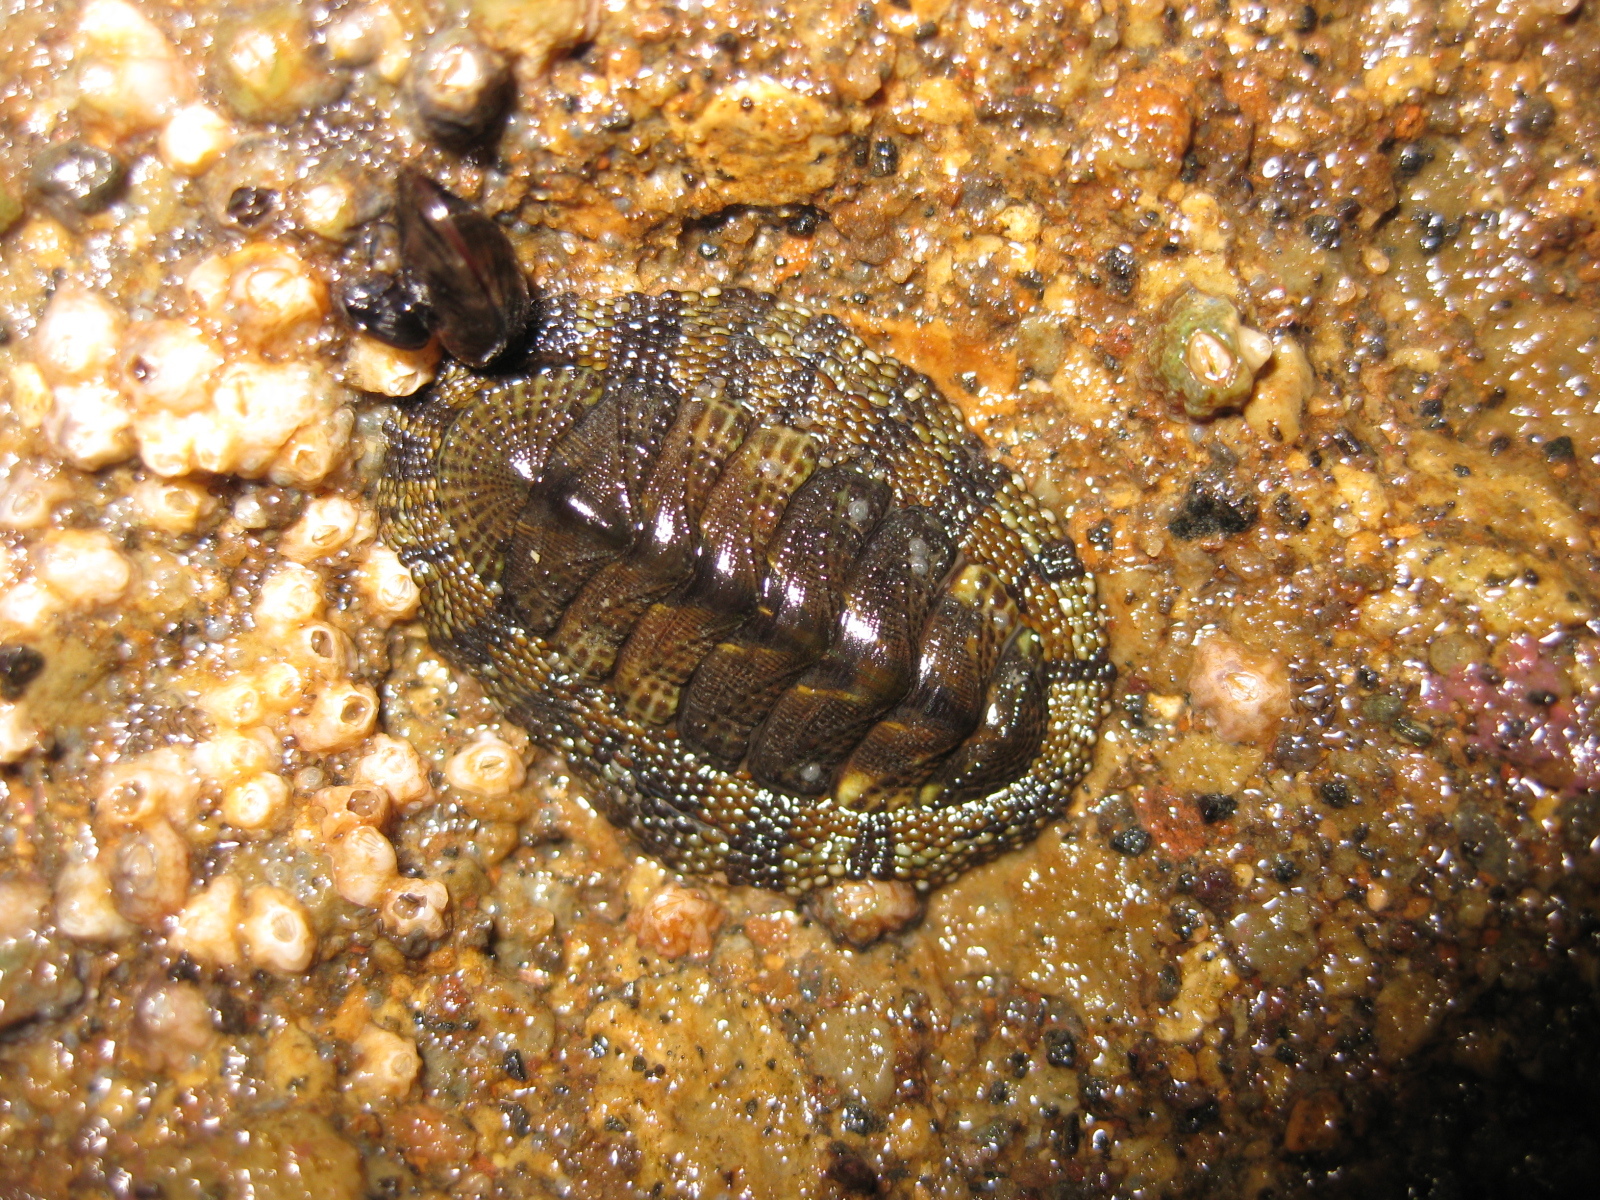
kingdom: Animalia
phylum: Mollusca
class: Polyplacophora
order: Chitonida
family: Chitonidae
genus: Sypharochiton
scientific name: Sypharochiton pelliserpentis
